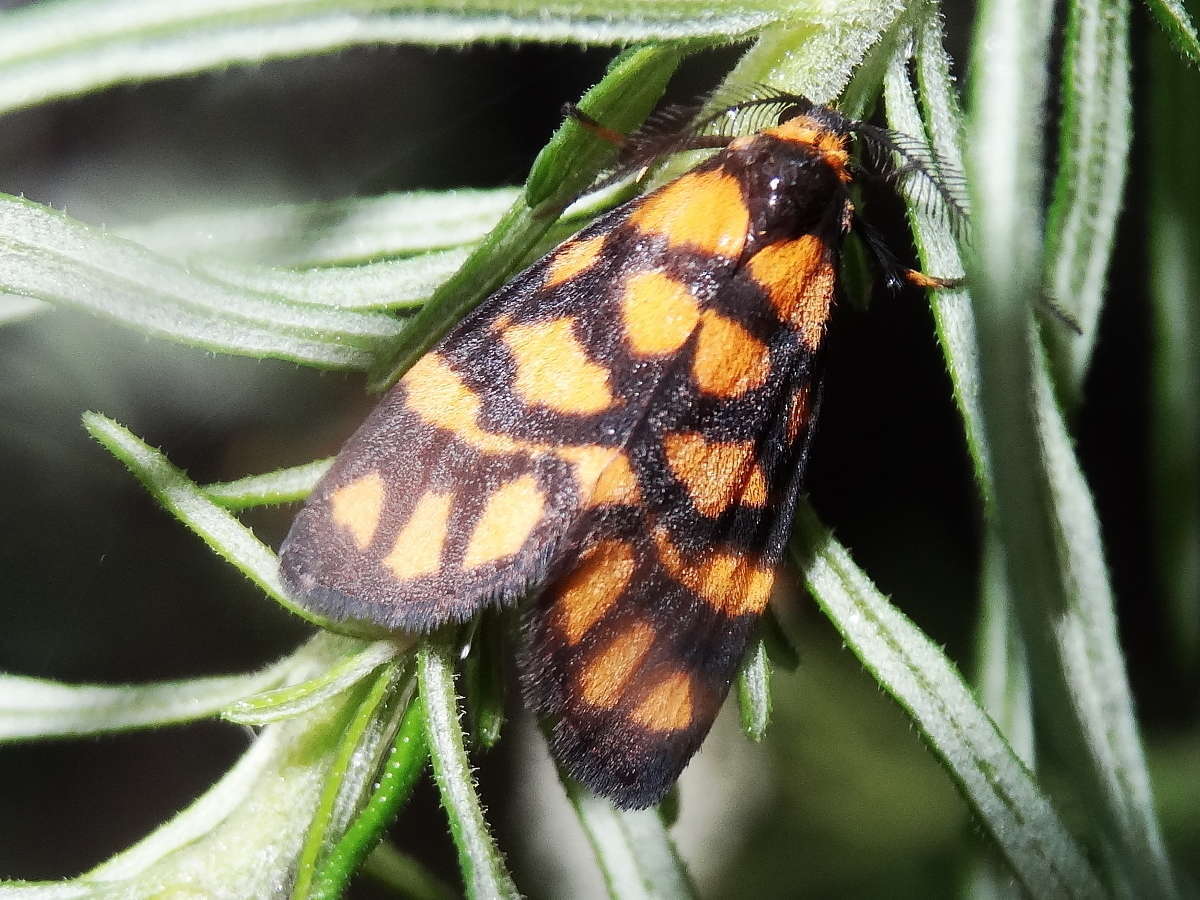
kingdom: Animalia
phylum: Arthropoda
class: Insecta
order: Lepidoptera
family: Erebidae
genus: Asura
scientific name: Asura lydia
